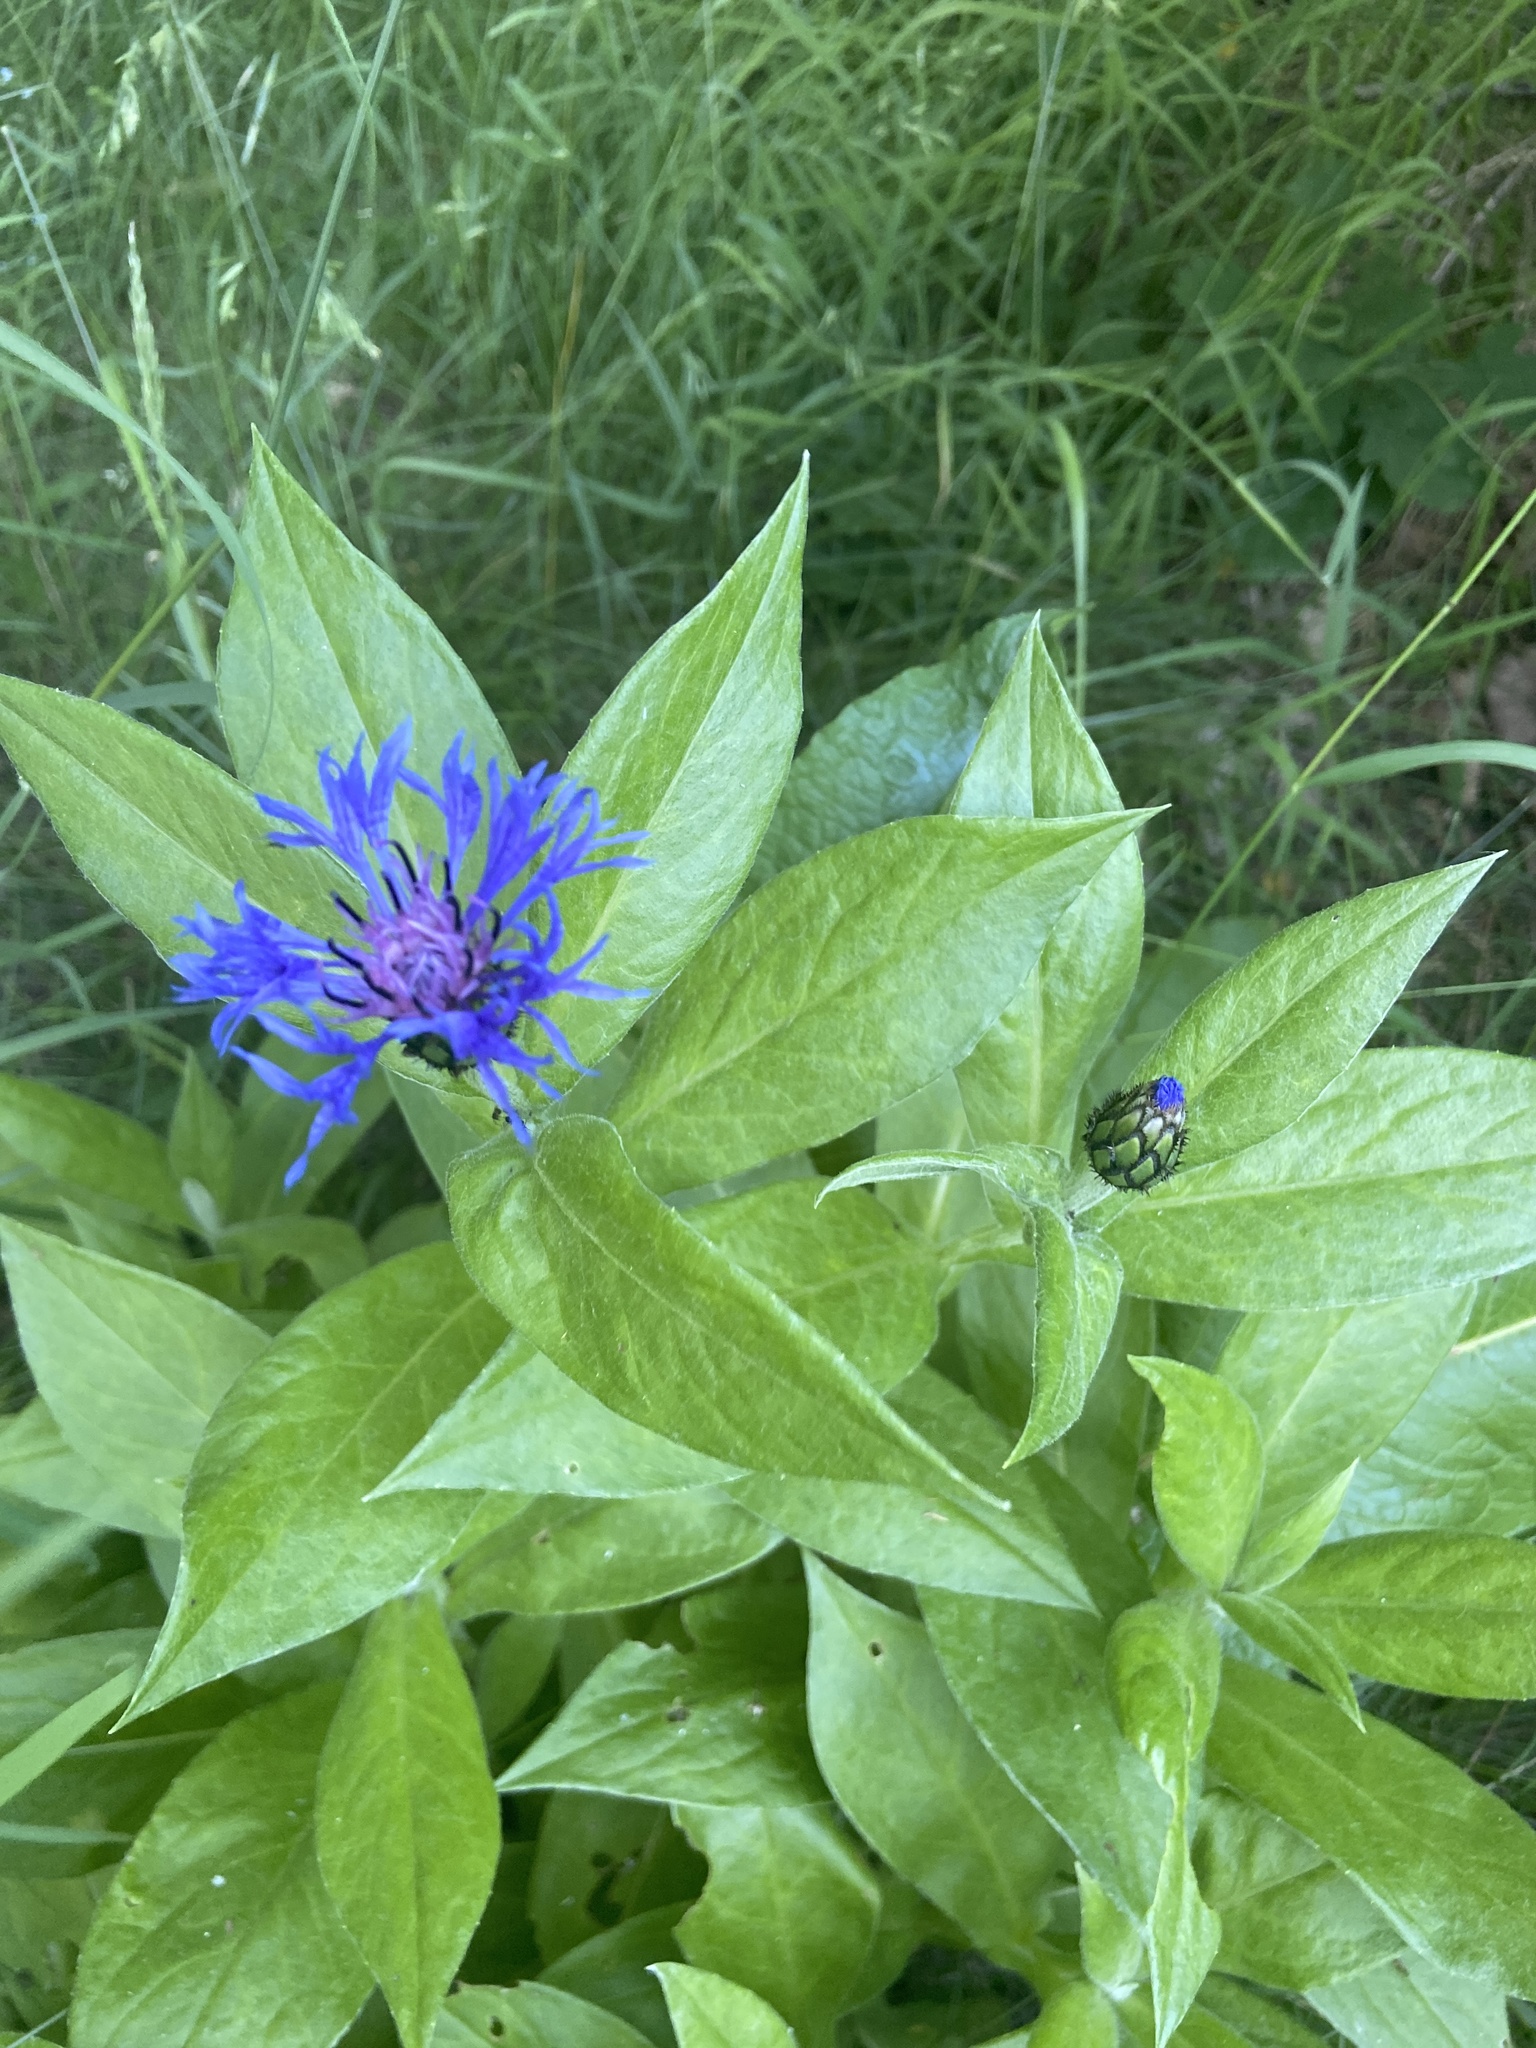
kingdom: Plantae
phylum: Tracheophyta
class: Magnoliopsida
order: Asterales
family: Asteraceae
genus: Centaurea
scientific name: Centaurea montana
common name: Perennial cornflower
